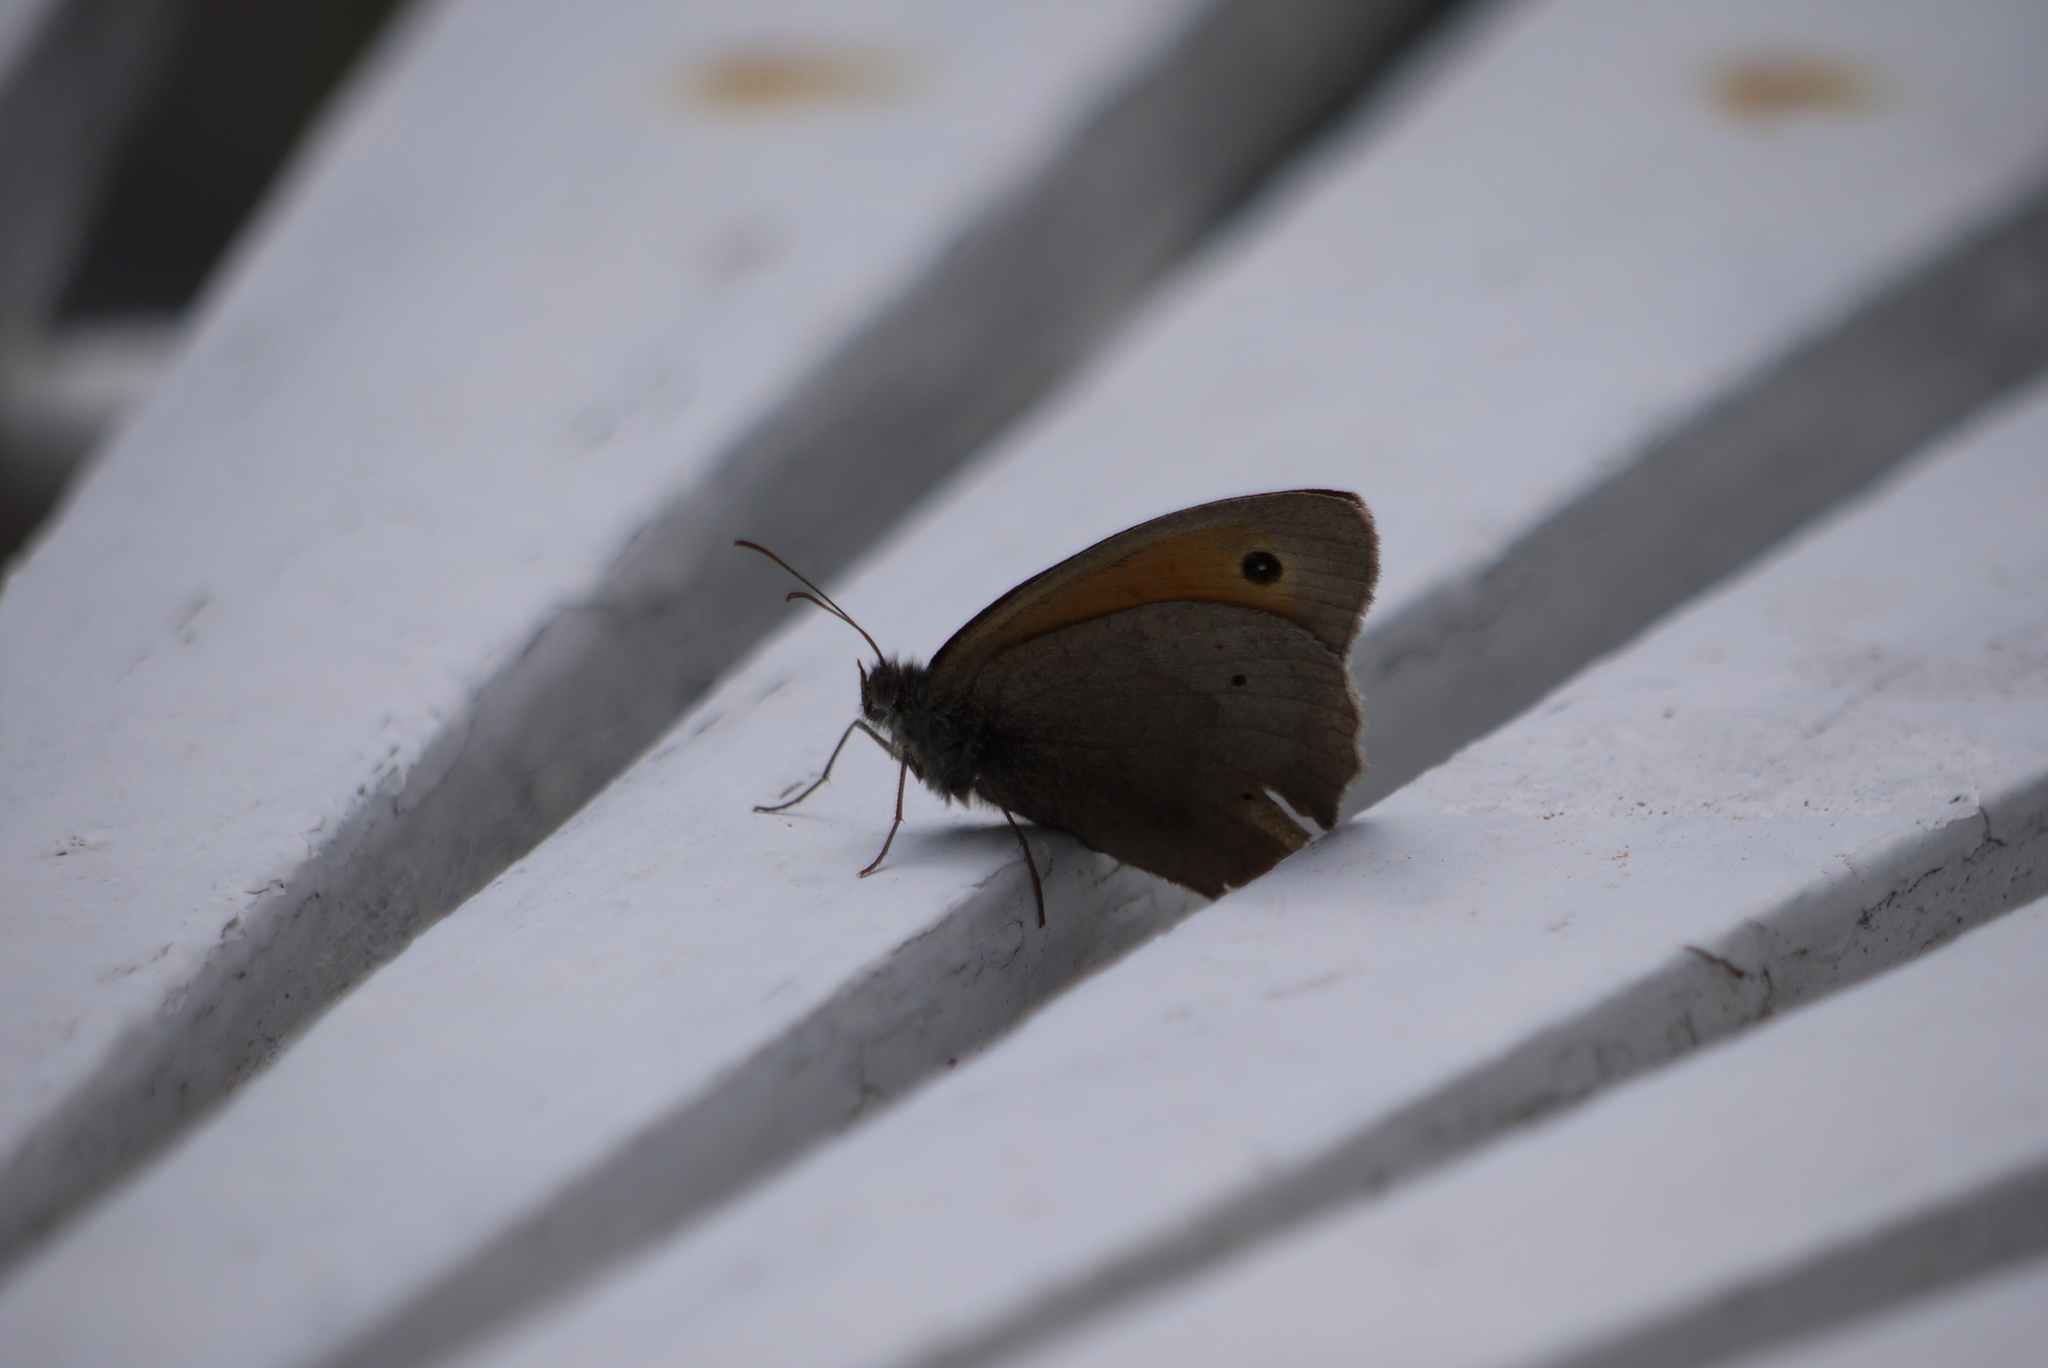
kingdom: Animalia
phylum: Arthropoda
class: Insecta
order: Lepidoptera
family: Nymphalidae
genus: Maniola
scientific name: Maniola jurtina
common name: Meadow brown
